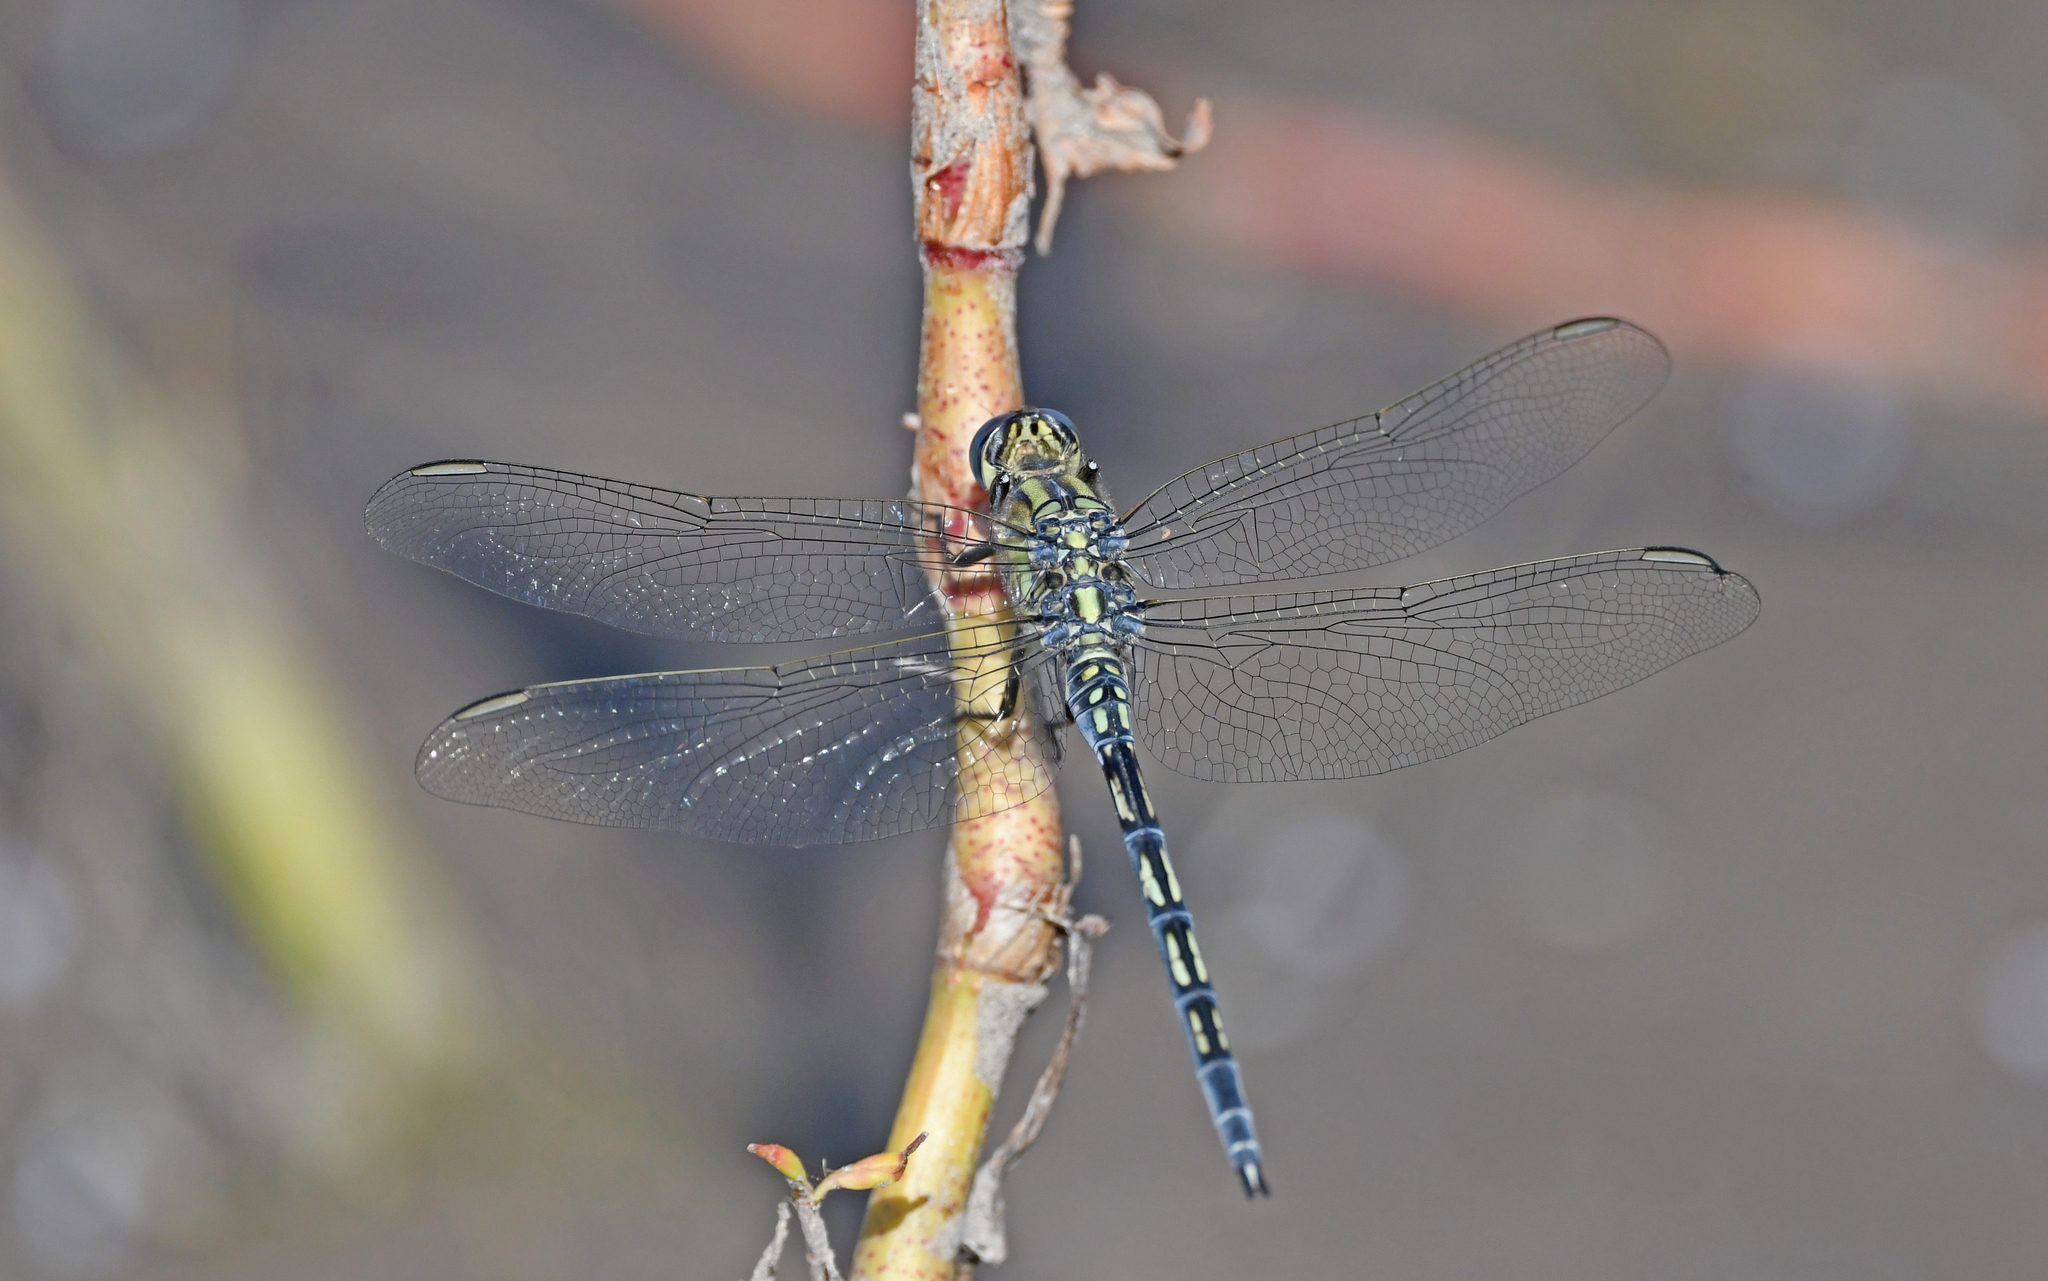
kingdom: Animalia
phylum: Arthropoda
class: Insecta
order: Odonata
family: Libellulidae
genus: Orthetrum
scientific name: Orthetrum trinacria
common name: Long skimmer
